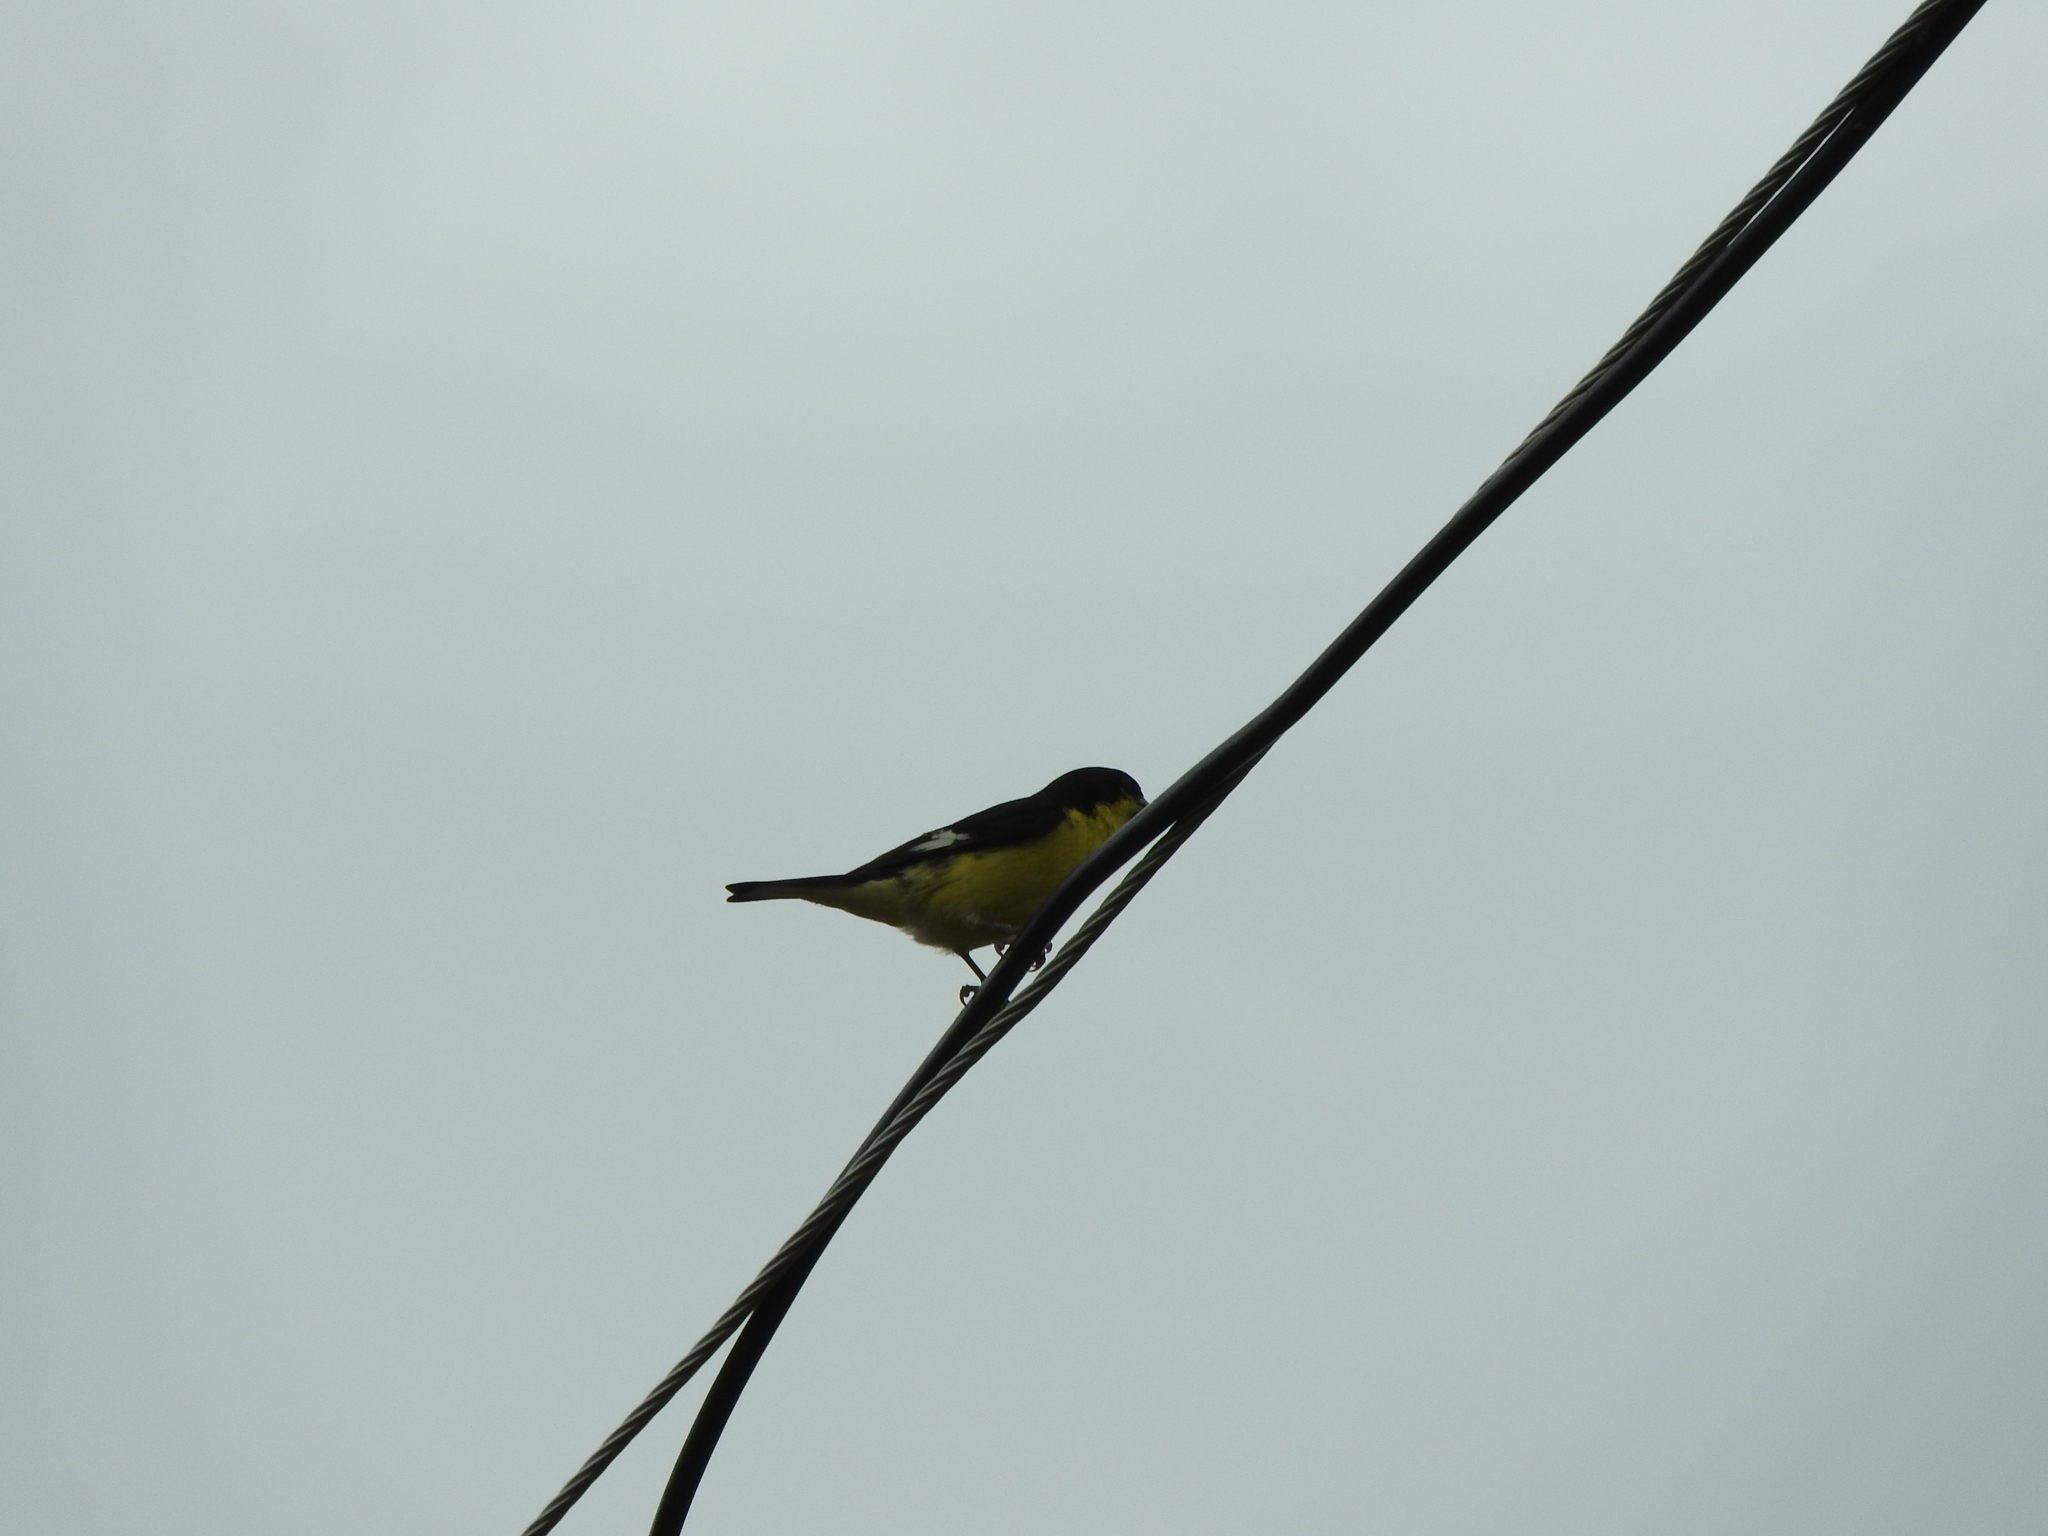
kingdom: Animalia
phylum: Chordata
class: Aves
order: Passeriformes
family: Fringillidae
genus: Spinus
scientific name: Spinus psaltria
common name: Lesser goldfinch
